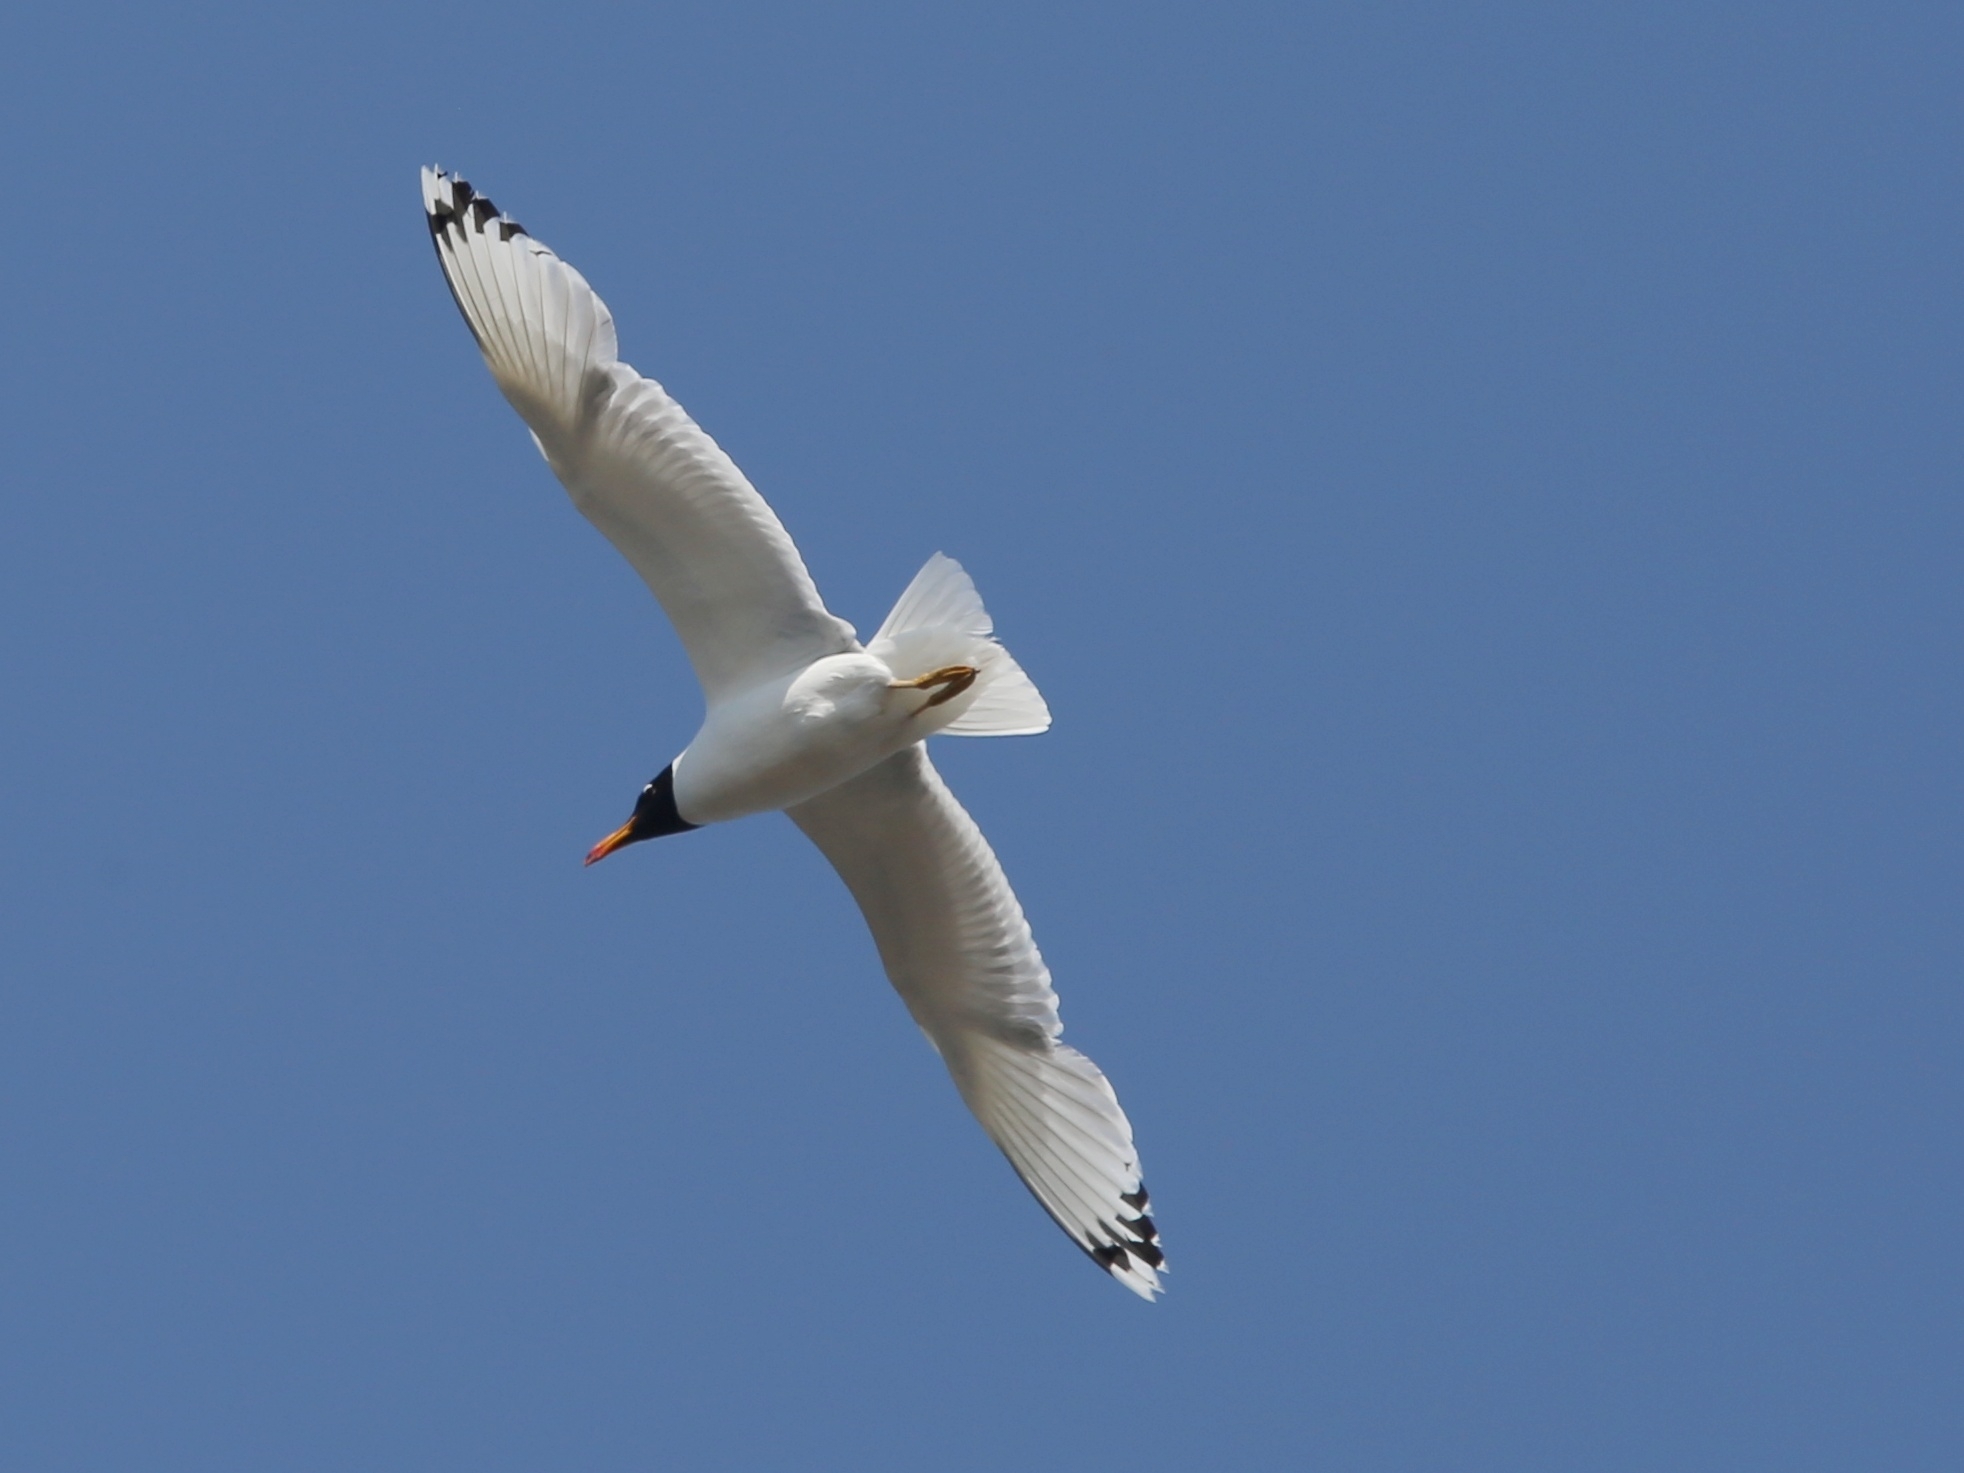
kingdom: Animalia
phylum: Chordata
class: Aves
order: Charadriiformes
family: Laridae
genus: Ichthyaetus
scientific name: Ichthyaetus ichthyaetus
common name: Pallas's gull
